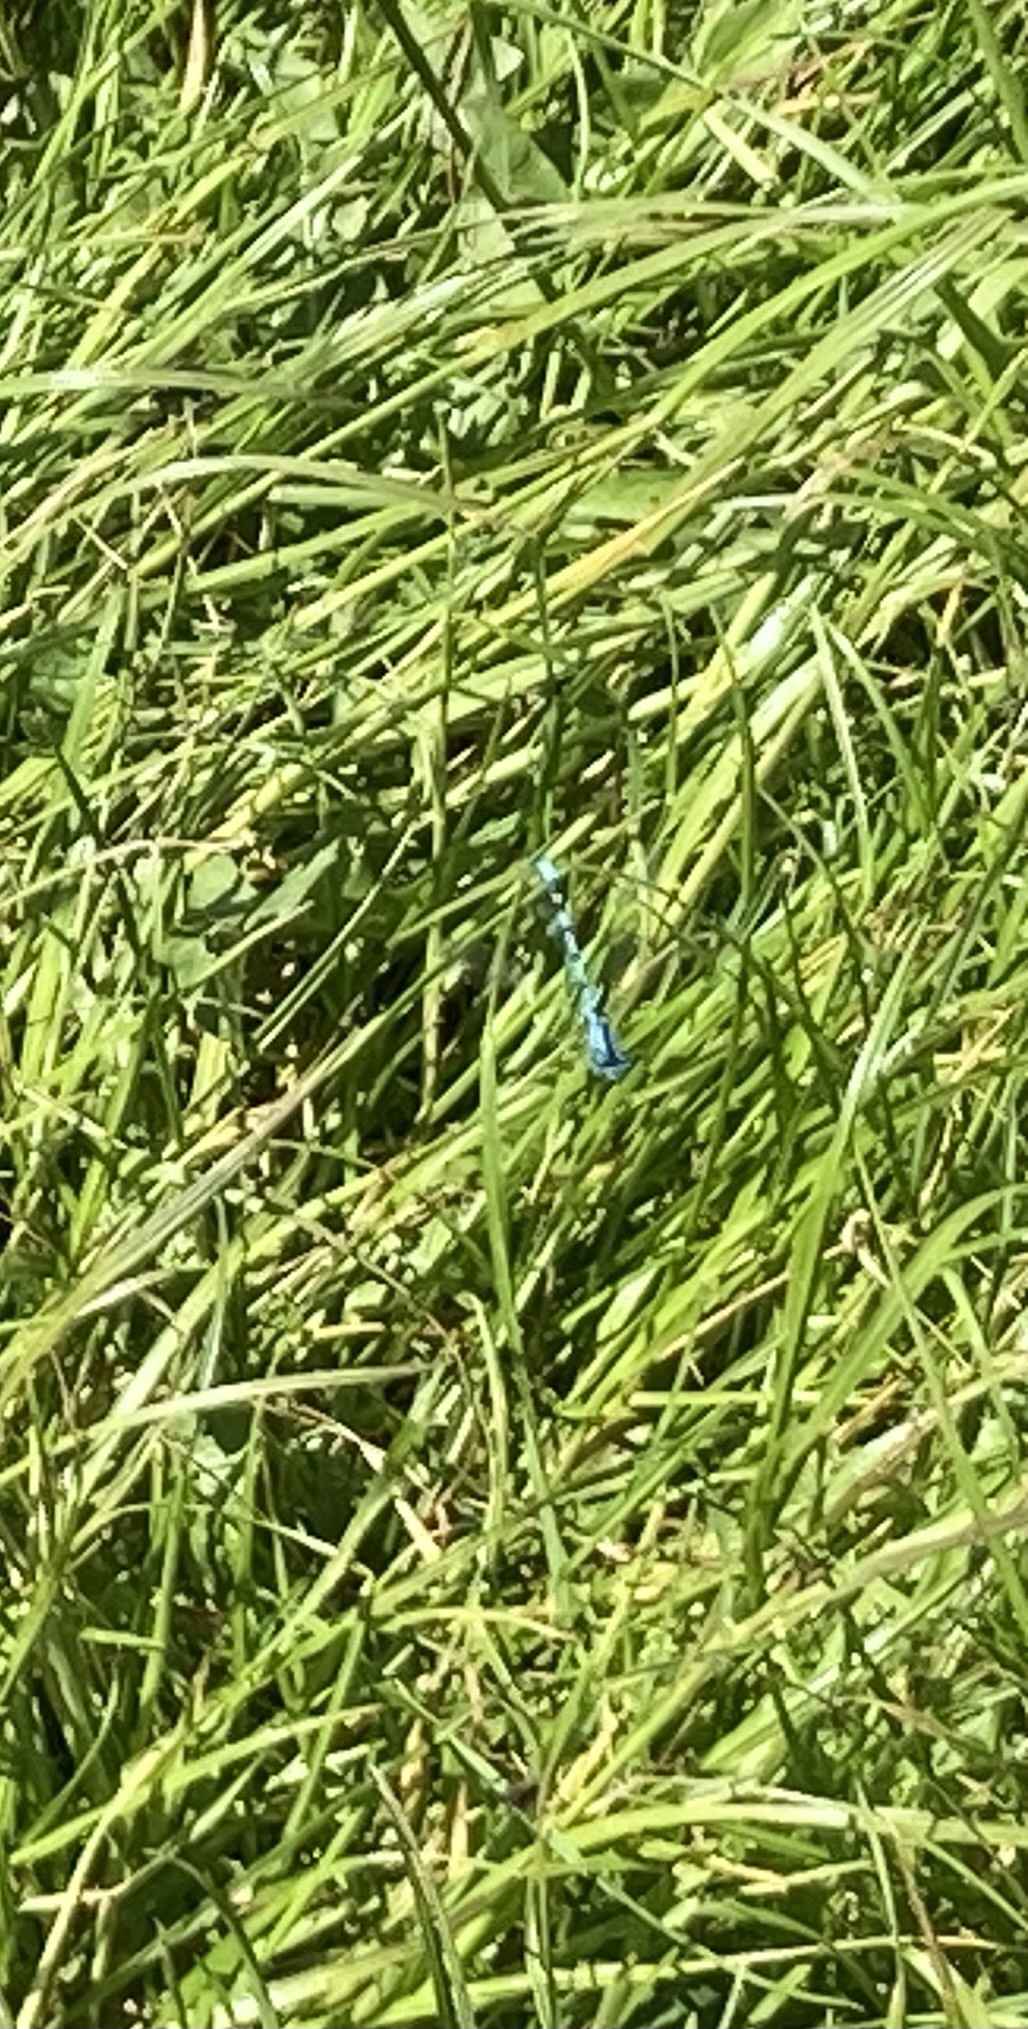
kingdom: Animalia
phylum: Arthropoda
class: Insecta
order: Odonata
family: Coenagrionidae
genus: Enallagma
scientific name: Enallagma cyathigerum
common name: Common blue damselfly
